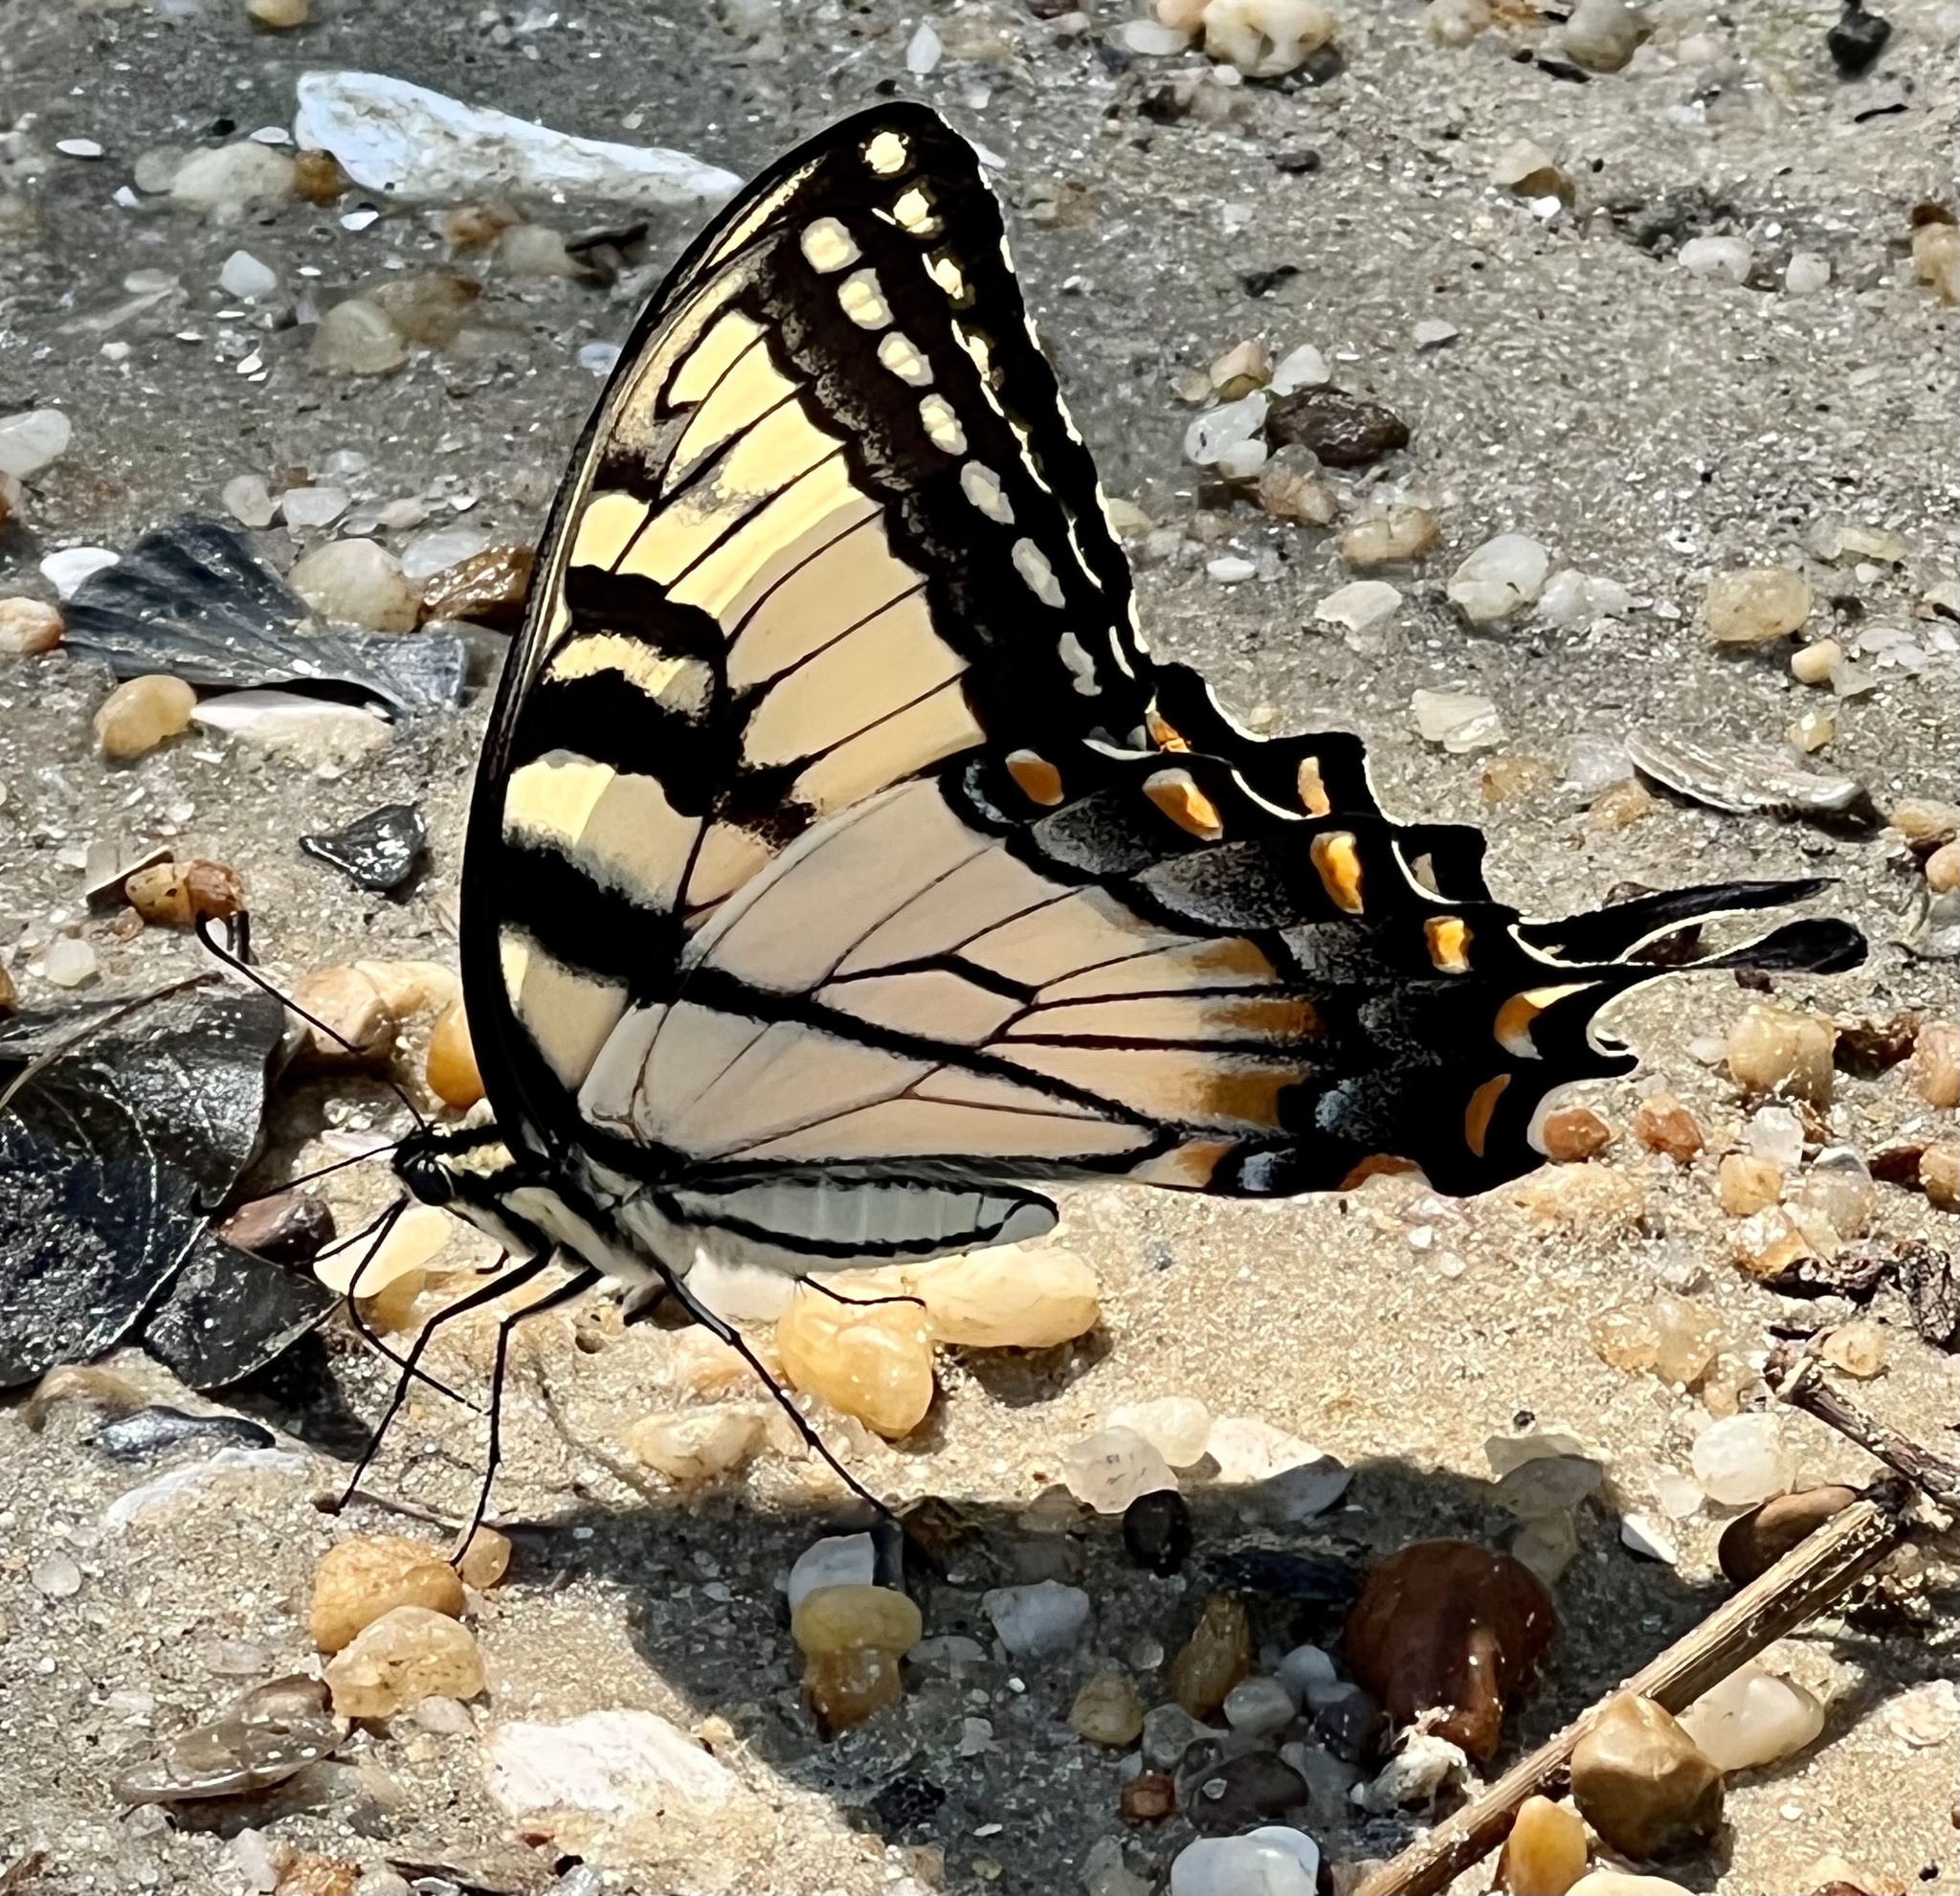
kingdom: Animalia
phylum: Arthropoda
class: Insecta
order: Lepidoptera
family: Papilionidae
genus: Papilio
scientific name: Papilio glaucus
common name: Tiger swallowtail
